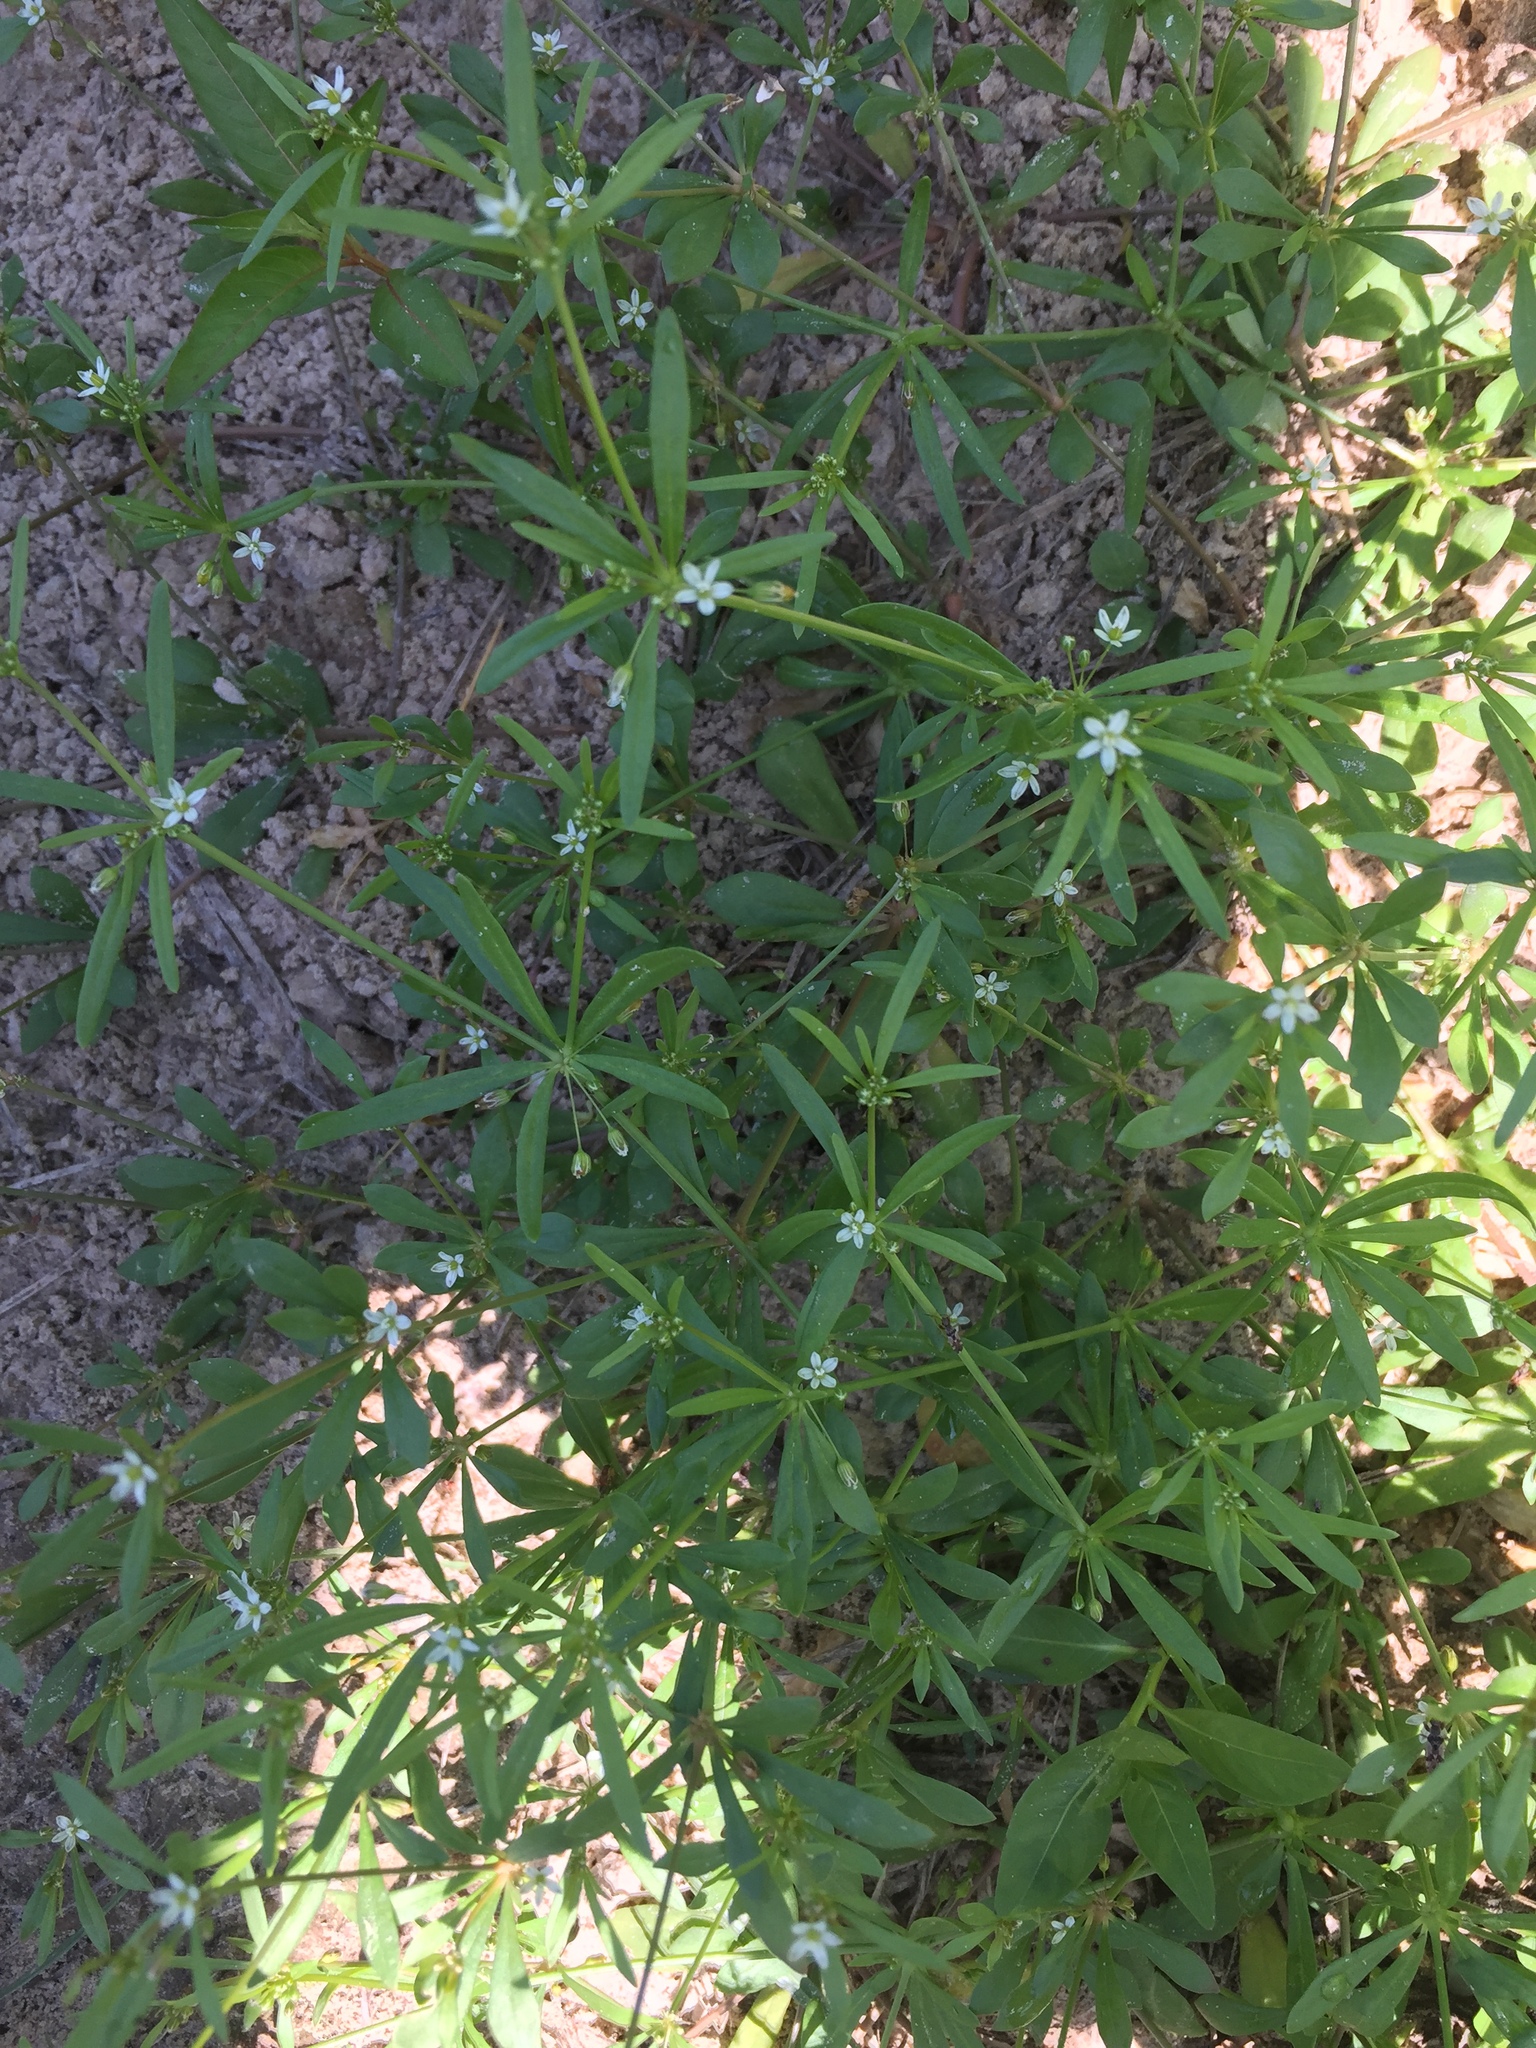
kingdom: Plantae
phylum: Tracheophyta
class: Magnoliopsida
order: Caryophyllales
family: Molluginaceae
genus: Mollugo
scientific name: Mollugo verticillata
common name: Green carpetweed
